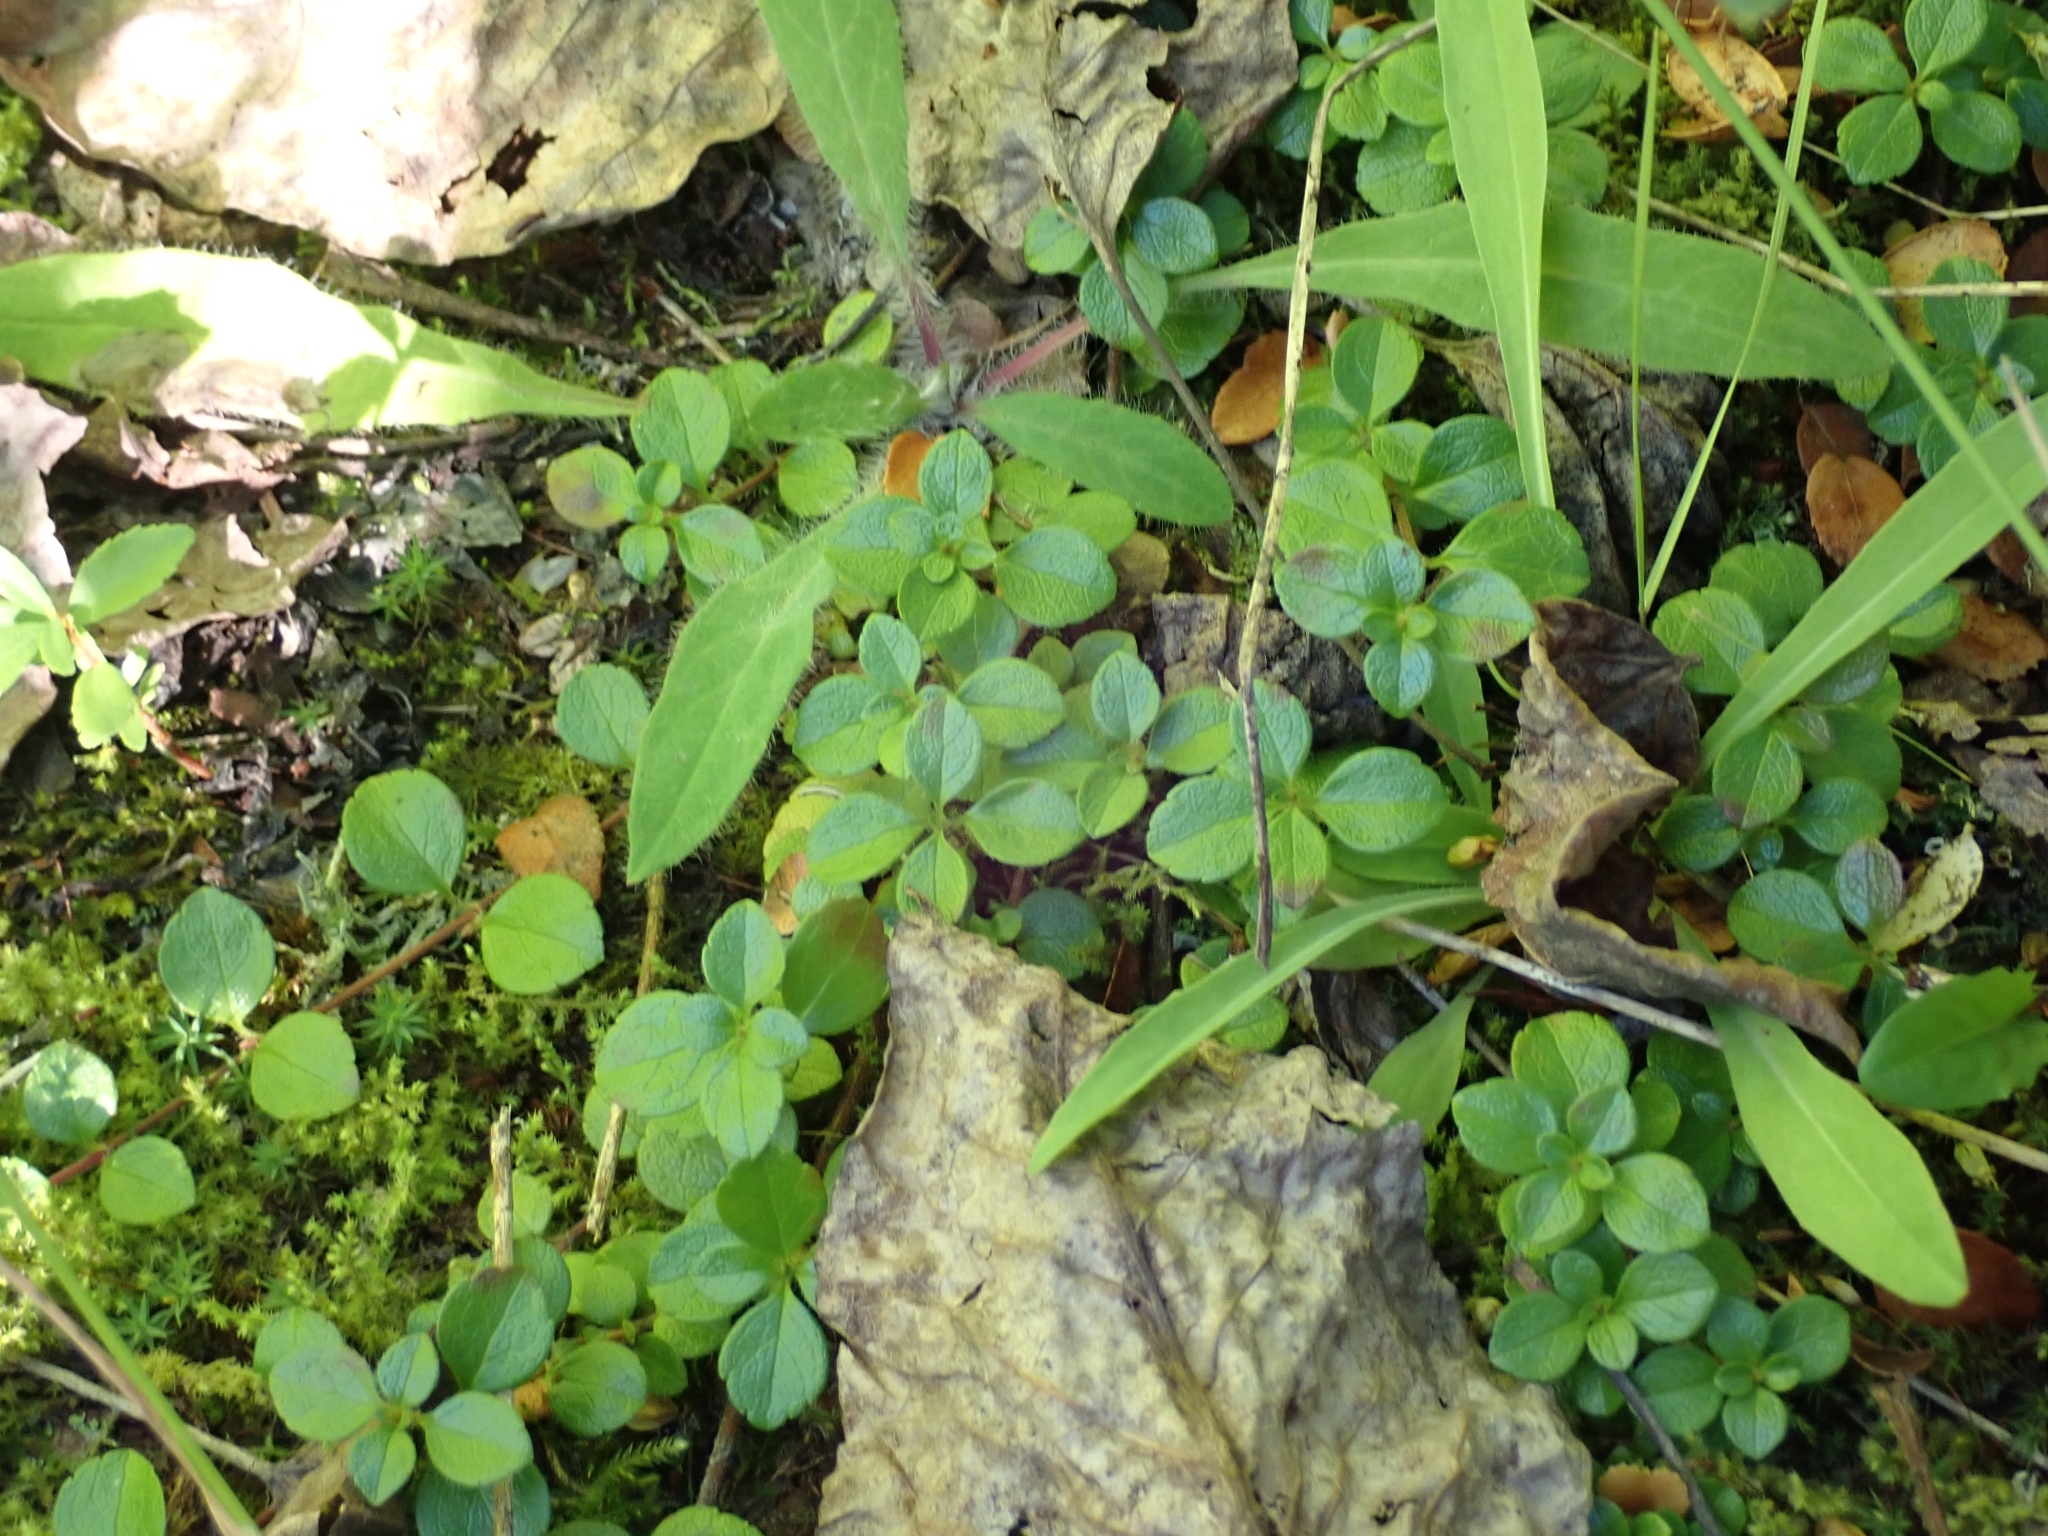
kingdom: Plantae
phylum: Tracheophyta
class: Magnoliopsida
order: Dipsacales
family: Caprifoliaceae
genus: Linnaea
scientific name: Linnaea borealis
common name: Twinflower
